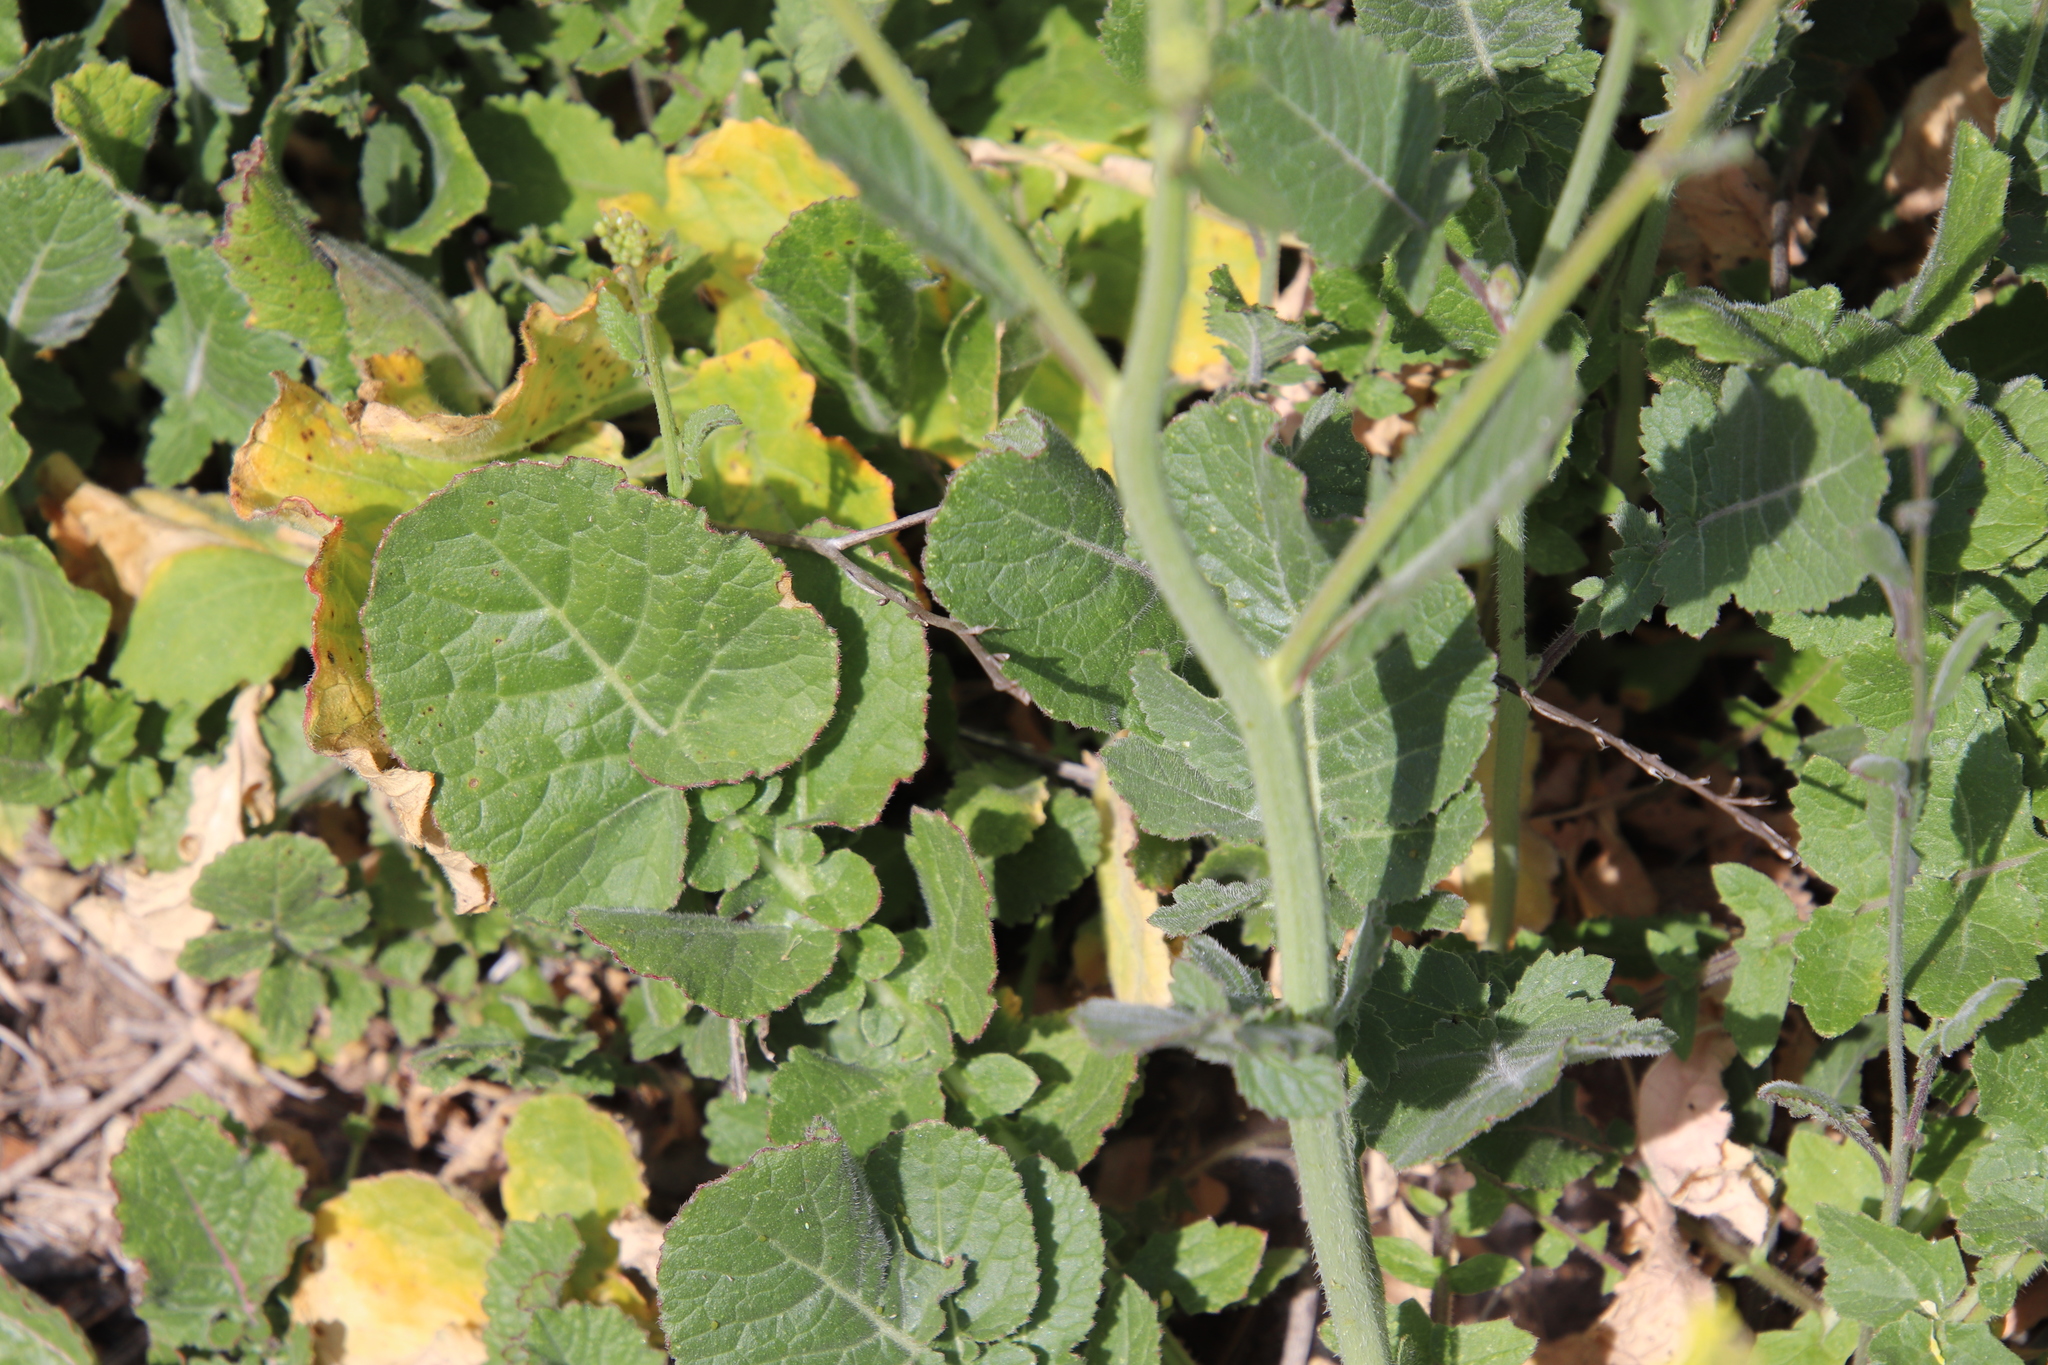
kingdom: Plantae
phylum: Tracheophyta
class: Magnoliopsida
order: Brassicales
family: Brassicaceae
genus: Hirschfeldia
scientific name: Hirschfeldia incana
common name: Hoary mustard
